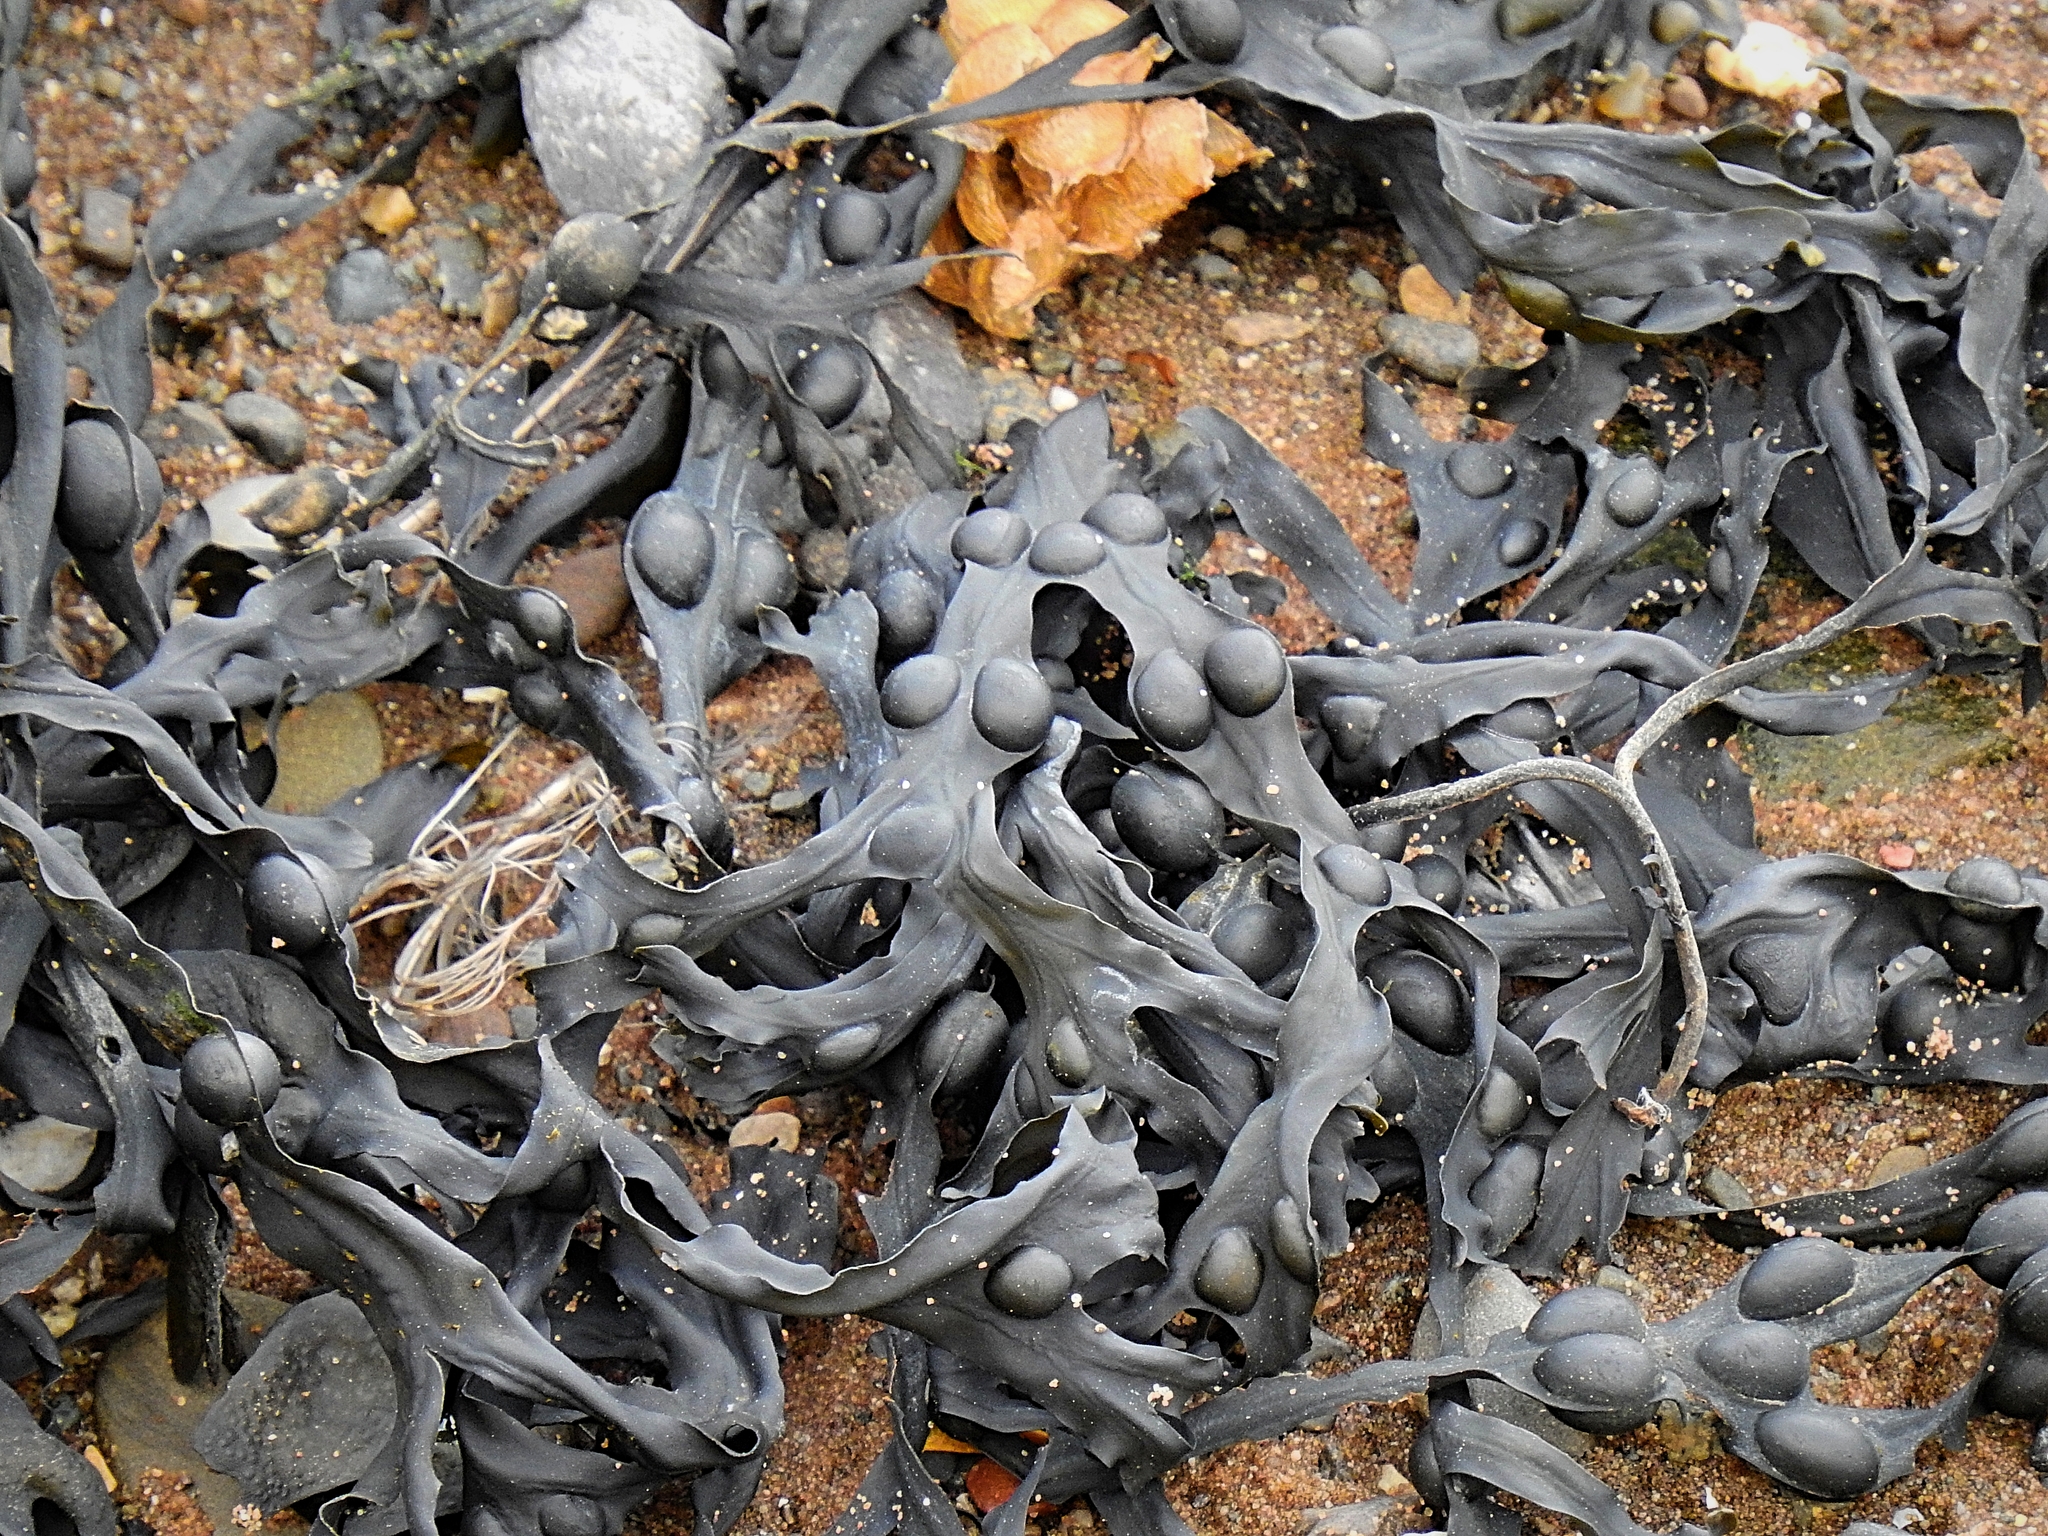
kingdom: Chromista
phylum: Ochrophyta
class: Phaeophyceae
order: Fucales
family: Fucaceae
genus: Fucus
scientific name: Fucus vesiculosus
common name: Bladder wrack
